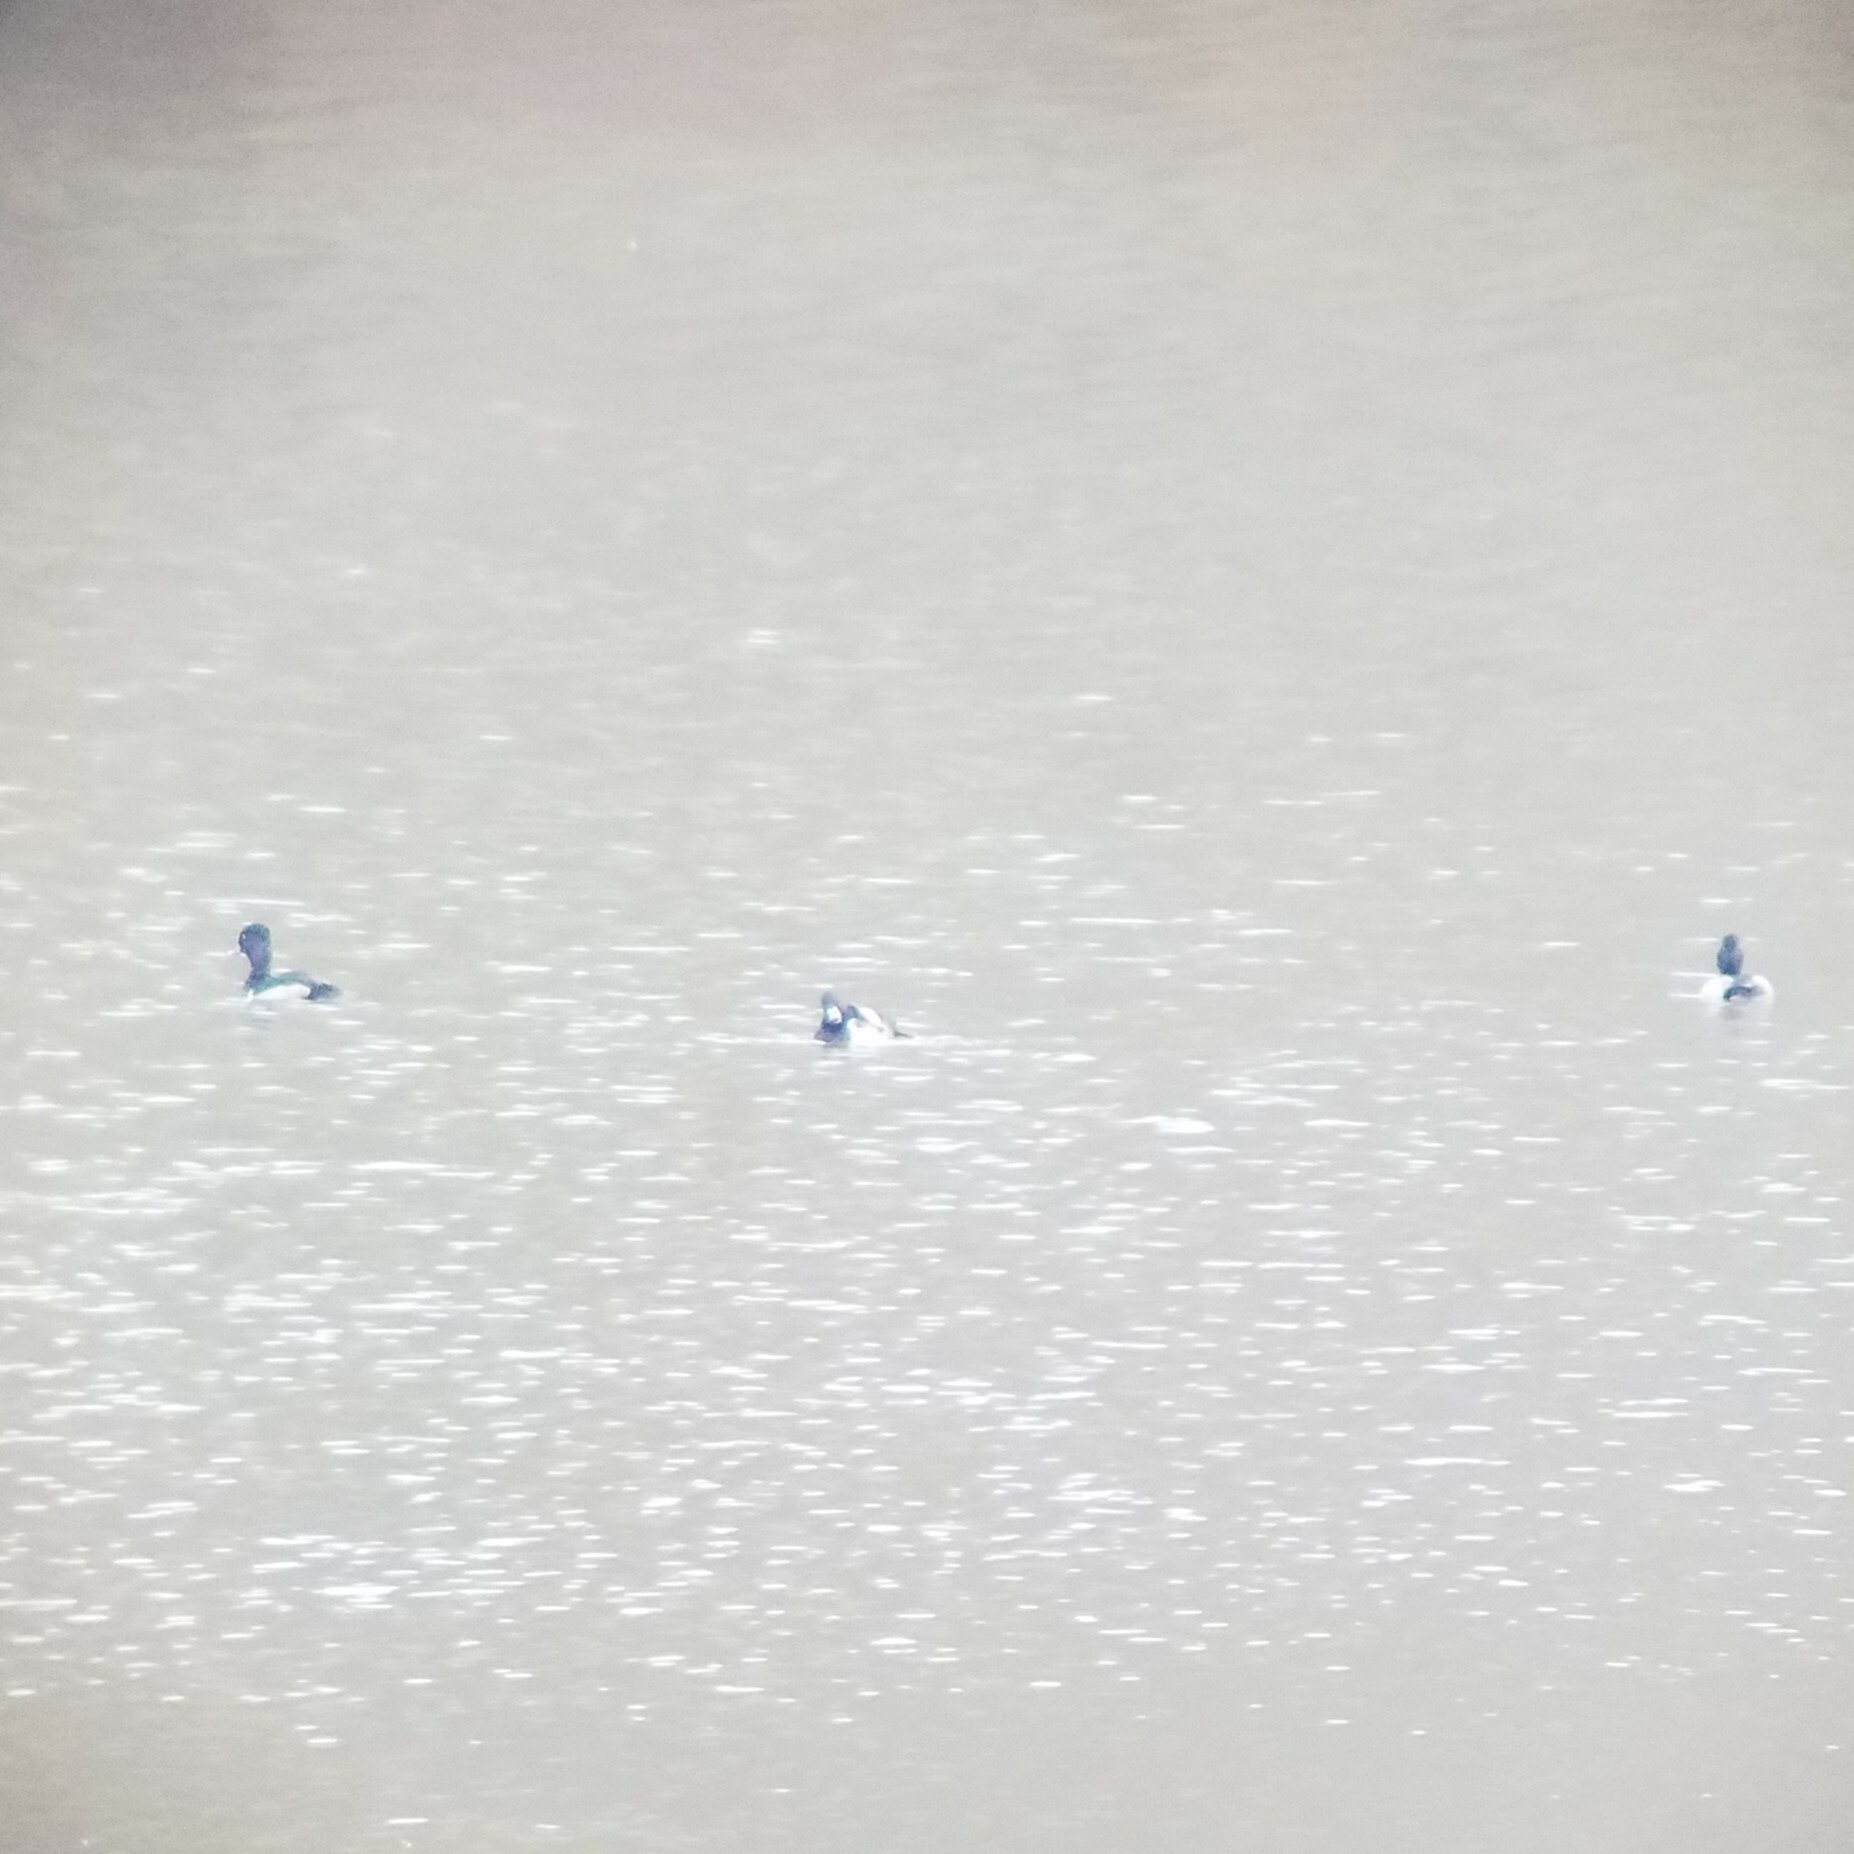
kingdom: Animalia
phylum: Chordata
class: Aves
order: Anseriformes
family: Anatidae
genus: Aythya
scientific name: Aythya collaris
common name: Ring-necked duck
